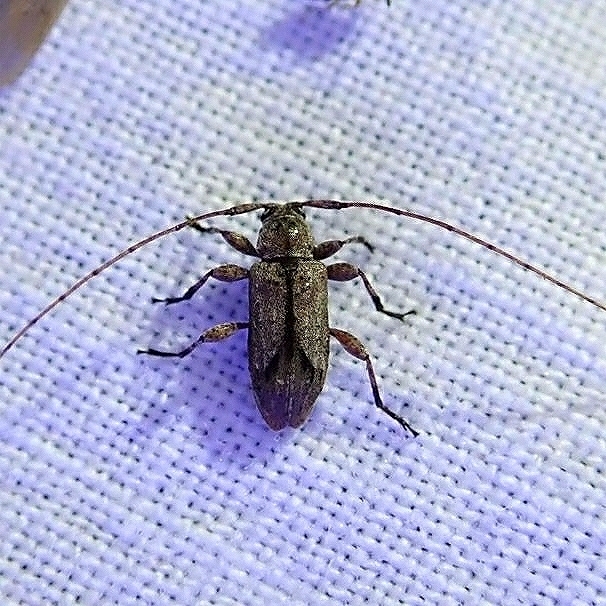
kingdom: Animalia
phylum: Arthropoda
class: Insecta
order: Coleoptera
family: Cerambycidae
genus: Sternidius
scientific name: Sternidius alpha
